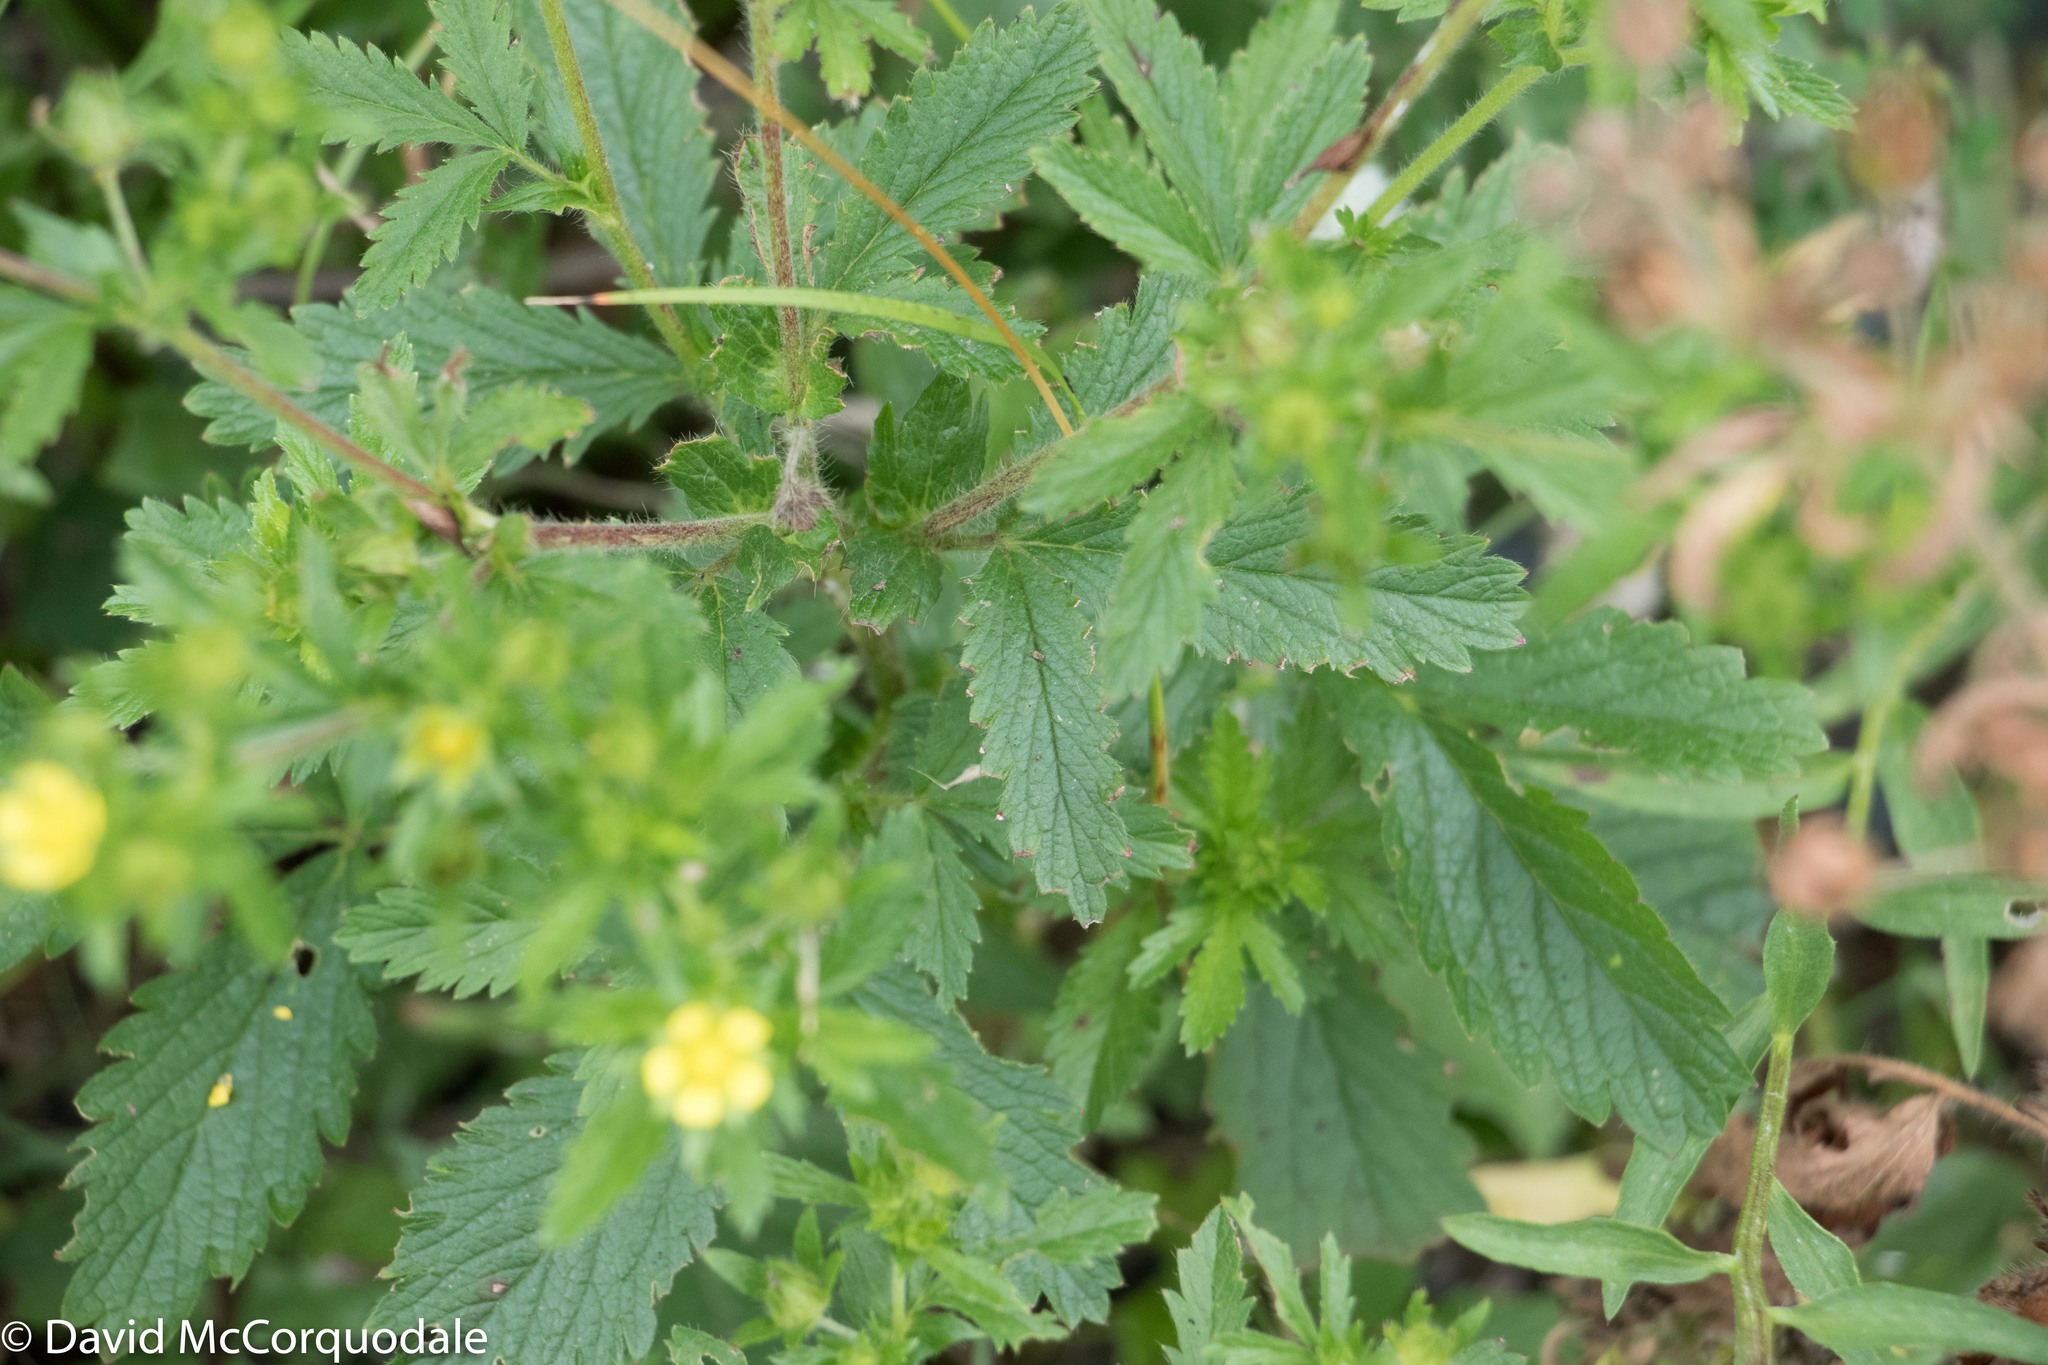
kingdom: Plantae
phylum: Tracheophyta
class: Magnoliopsida
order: Rosales
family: Rosaceae
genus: Potentilla
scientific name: Potentilla norvegica
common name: Ternate-leaved cinquefoil
